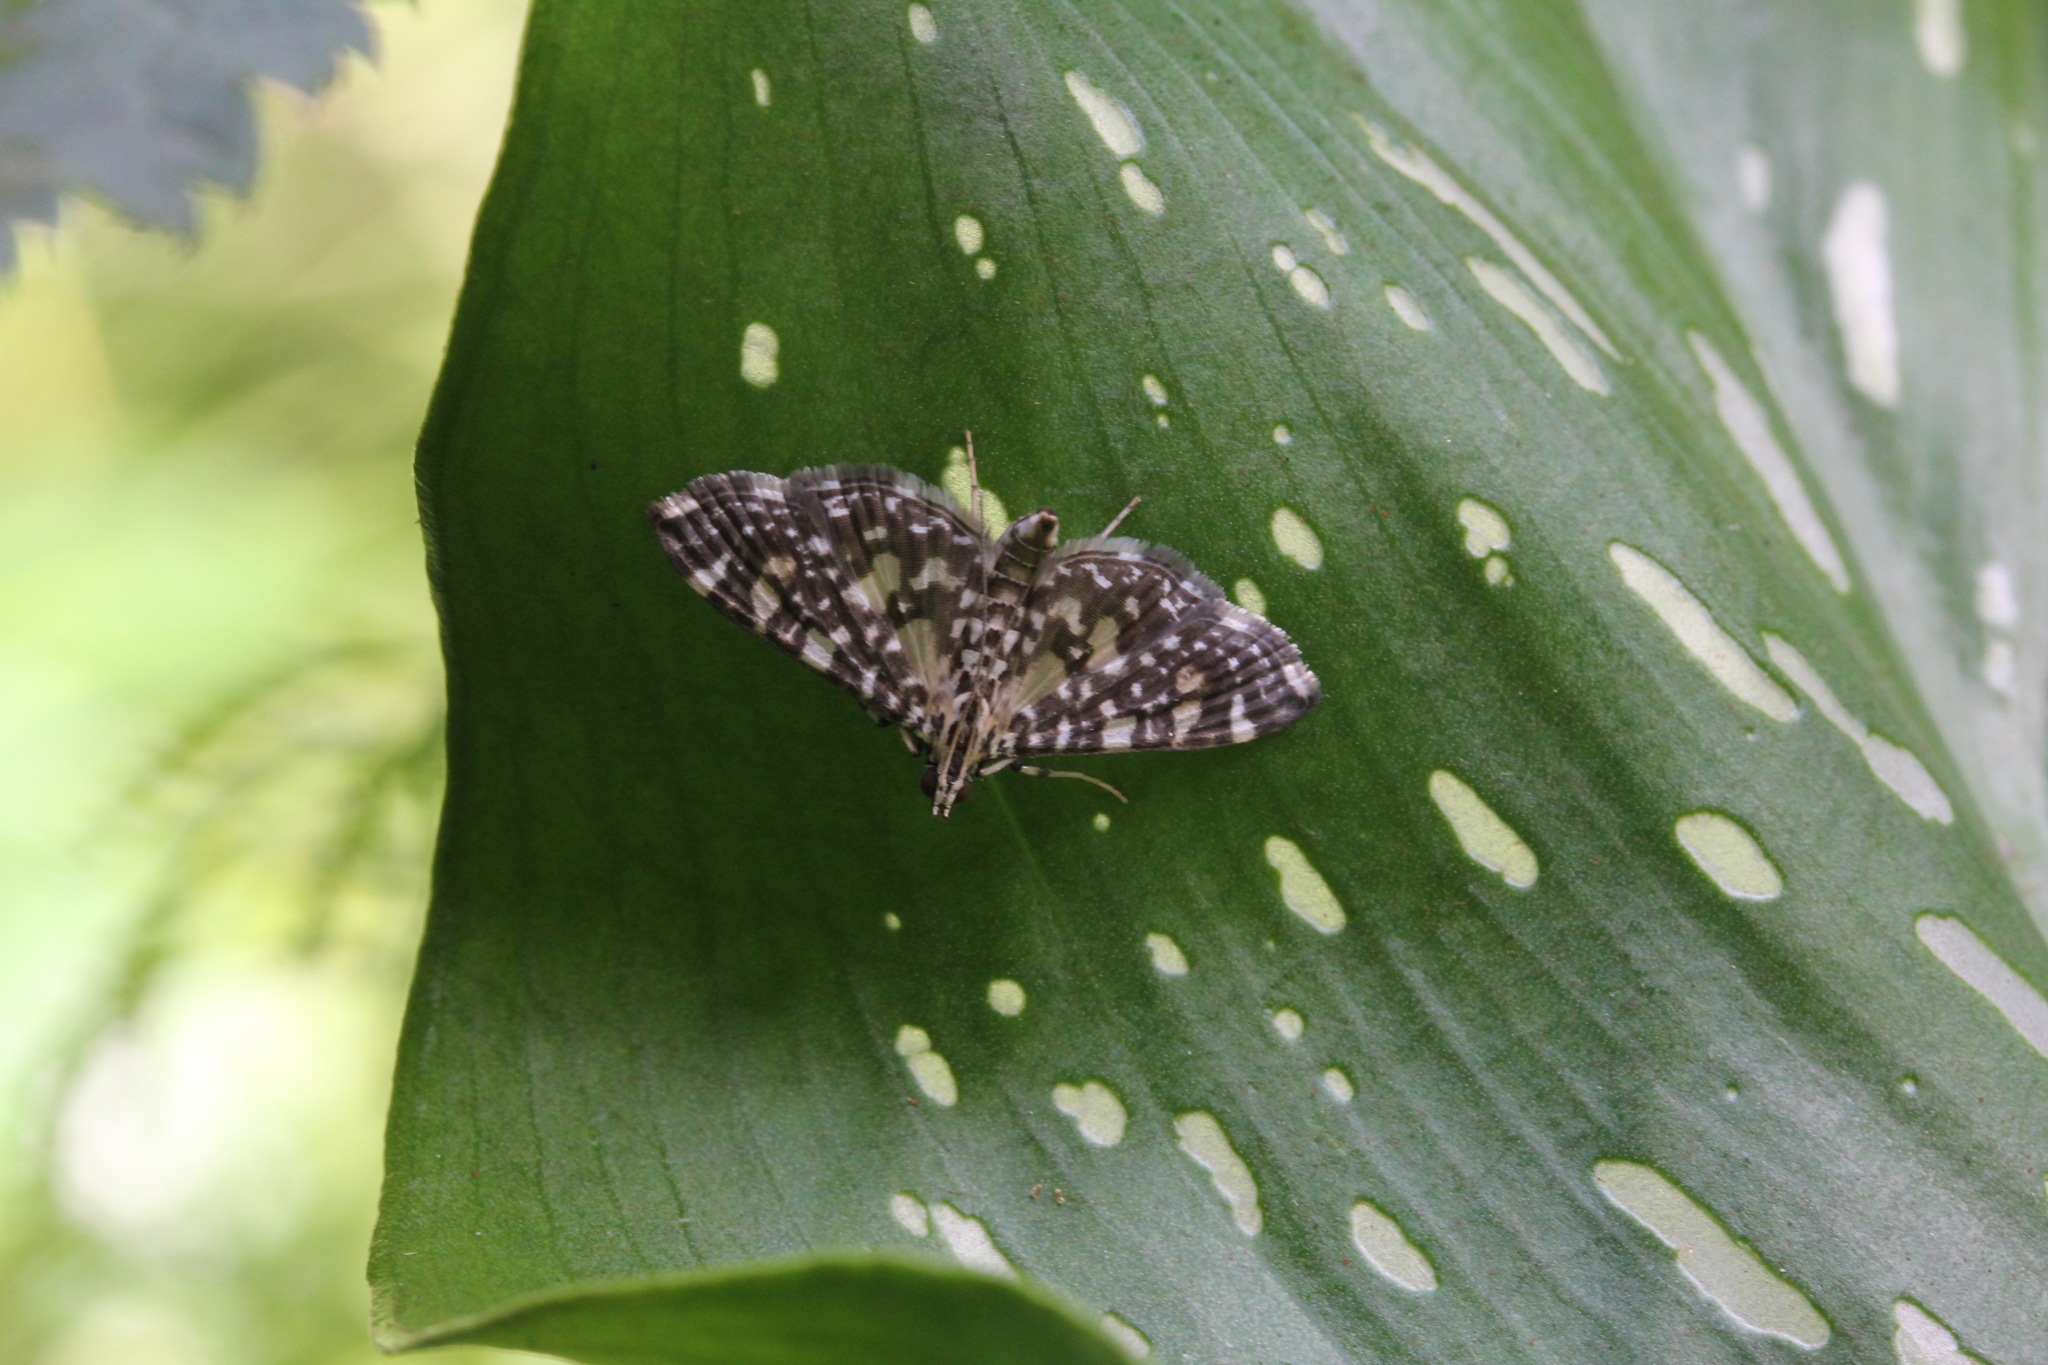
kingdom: Animalia
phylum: Arthropoda
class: Insecta
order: Lepidoptera
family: Crambidae
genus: Glyphodes
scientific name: Glyphodes onychinalis
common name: Swan plant moth
